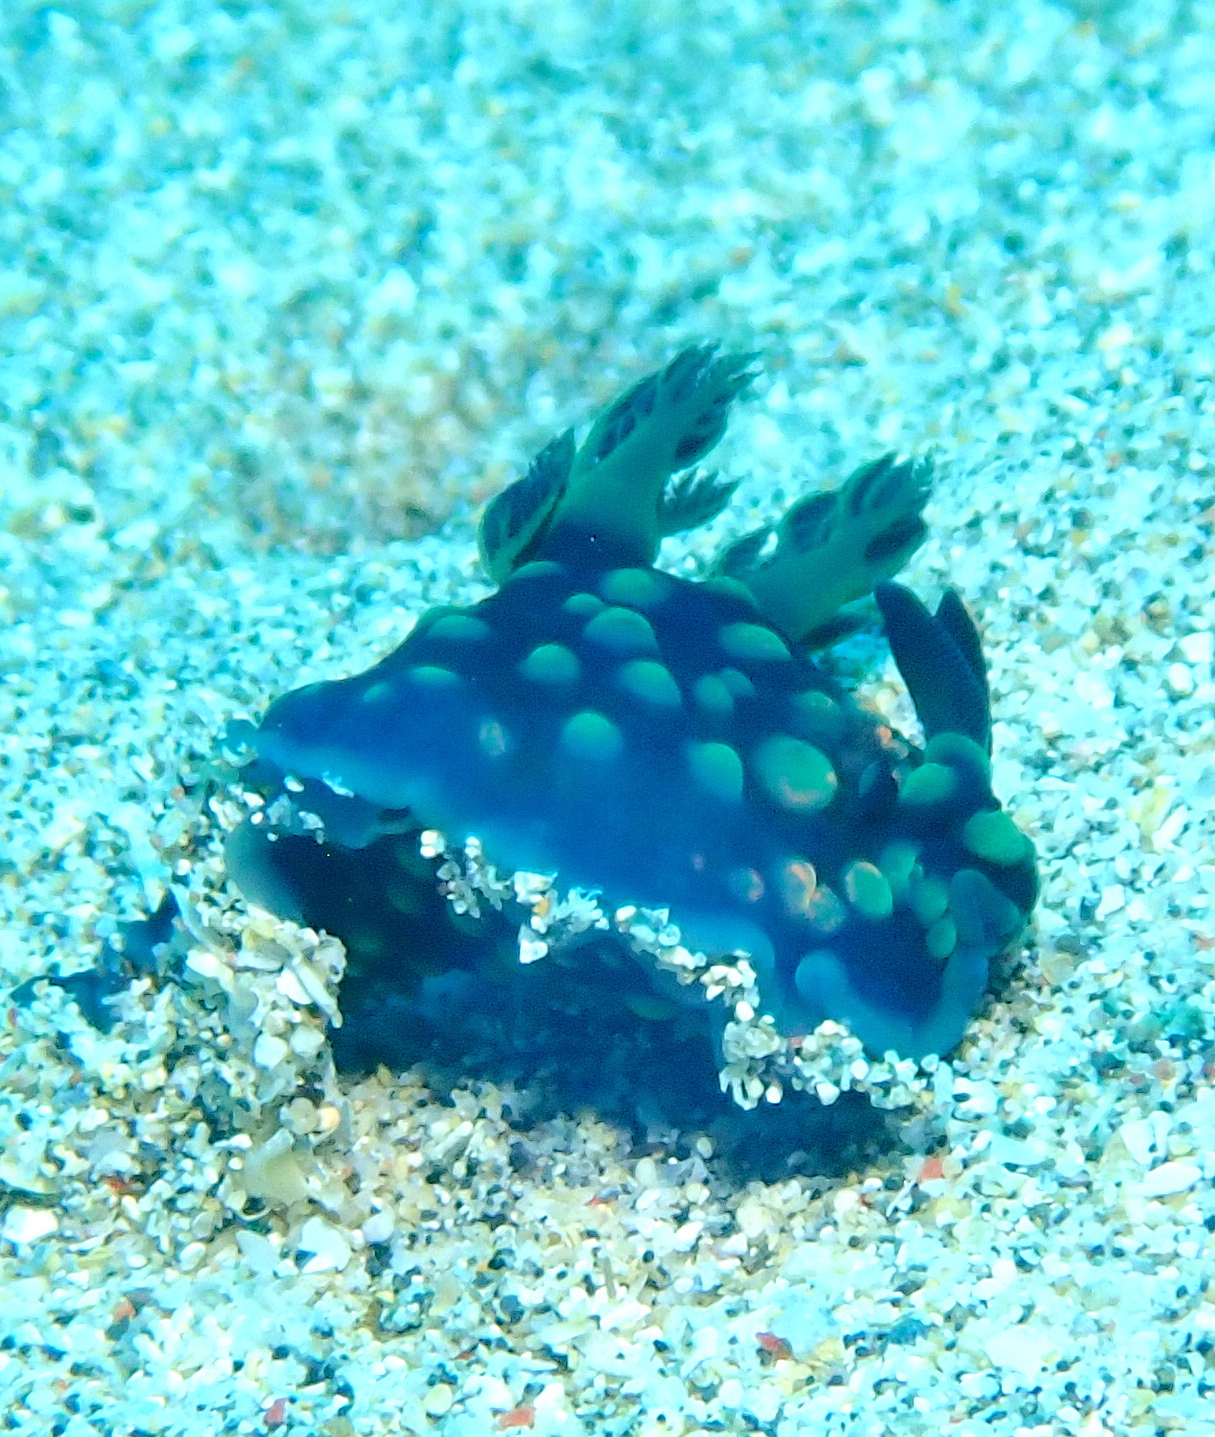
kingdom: Animalia
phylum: Mollusca
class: Gastropoda
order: Nudibranchia
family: Polyceridae
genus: Nembrotha
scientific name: Nembrotha cristata
